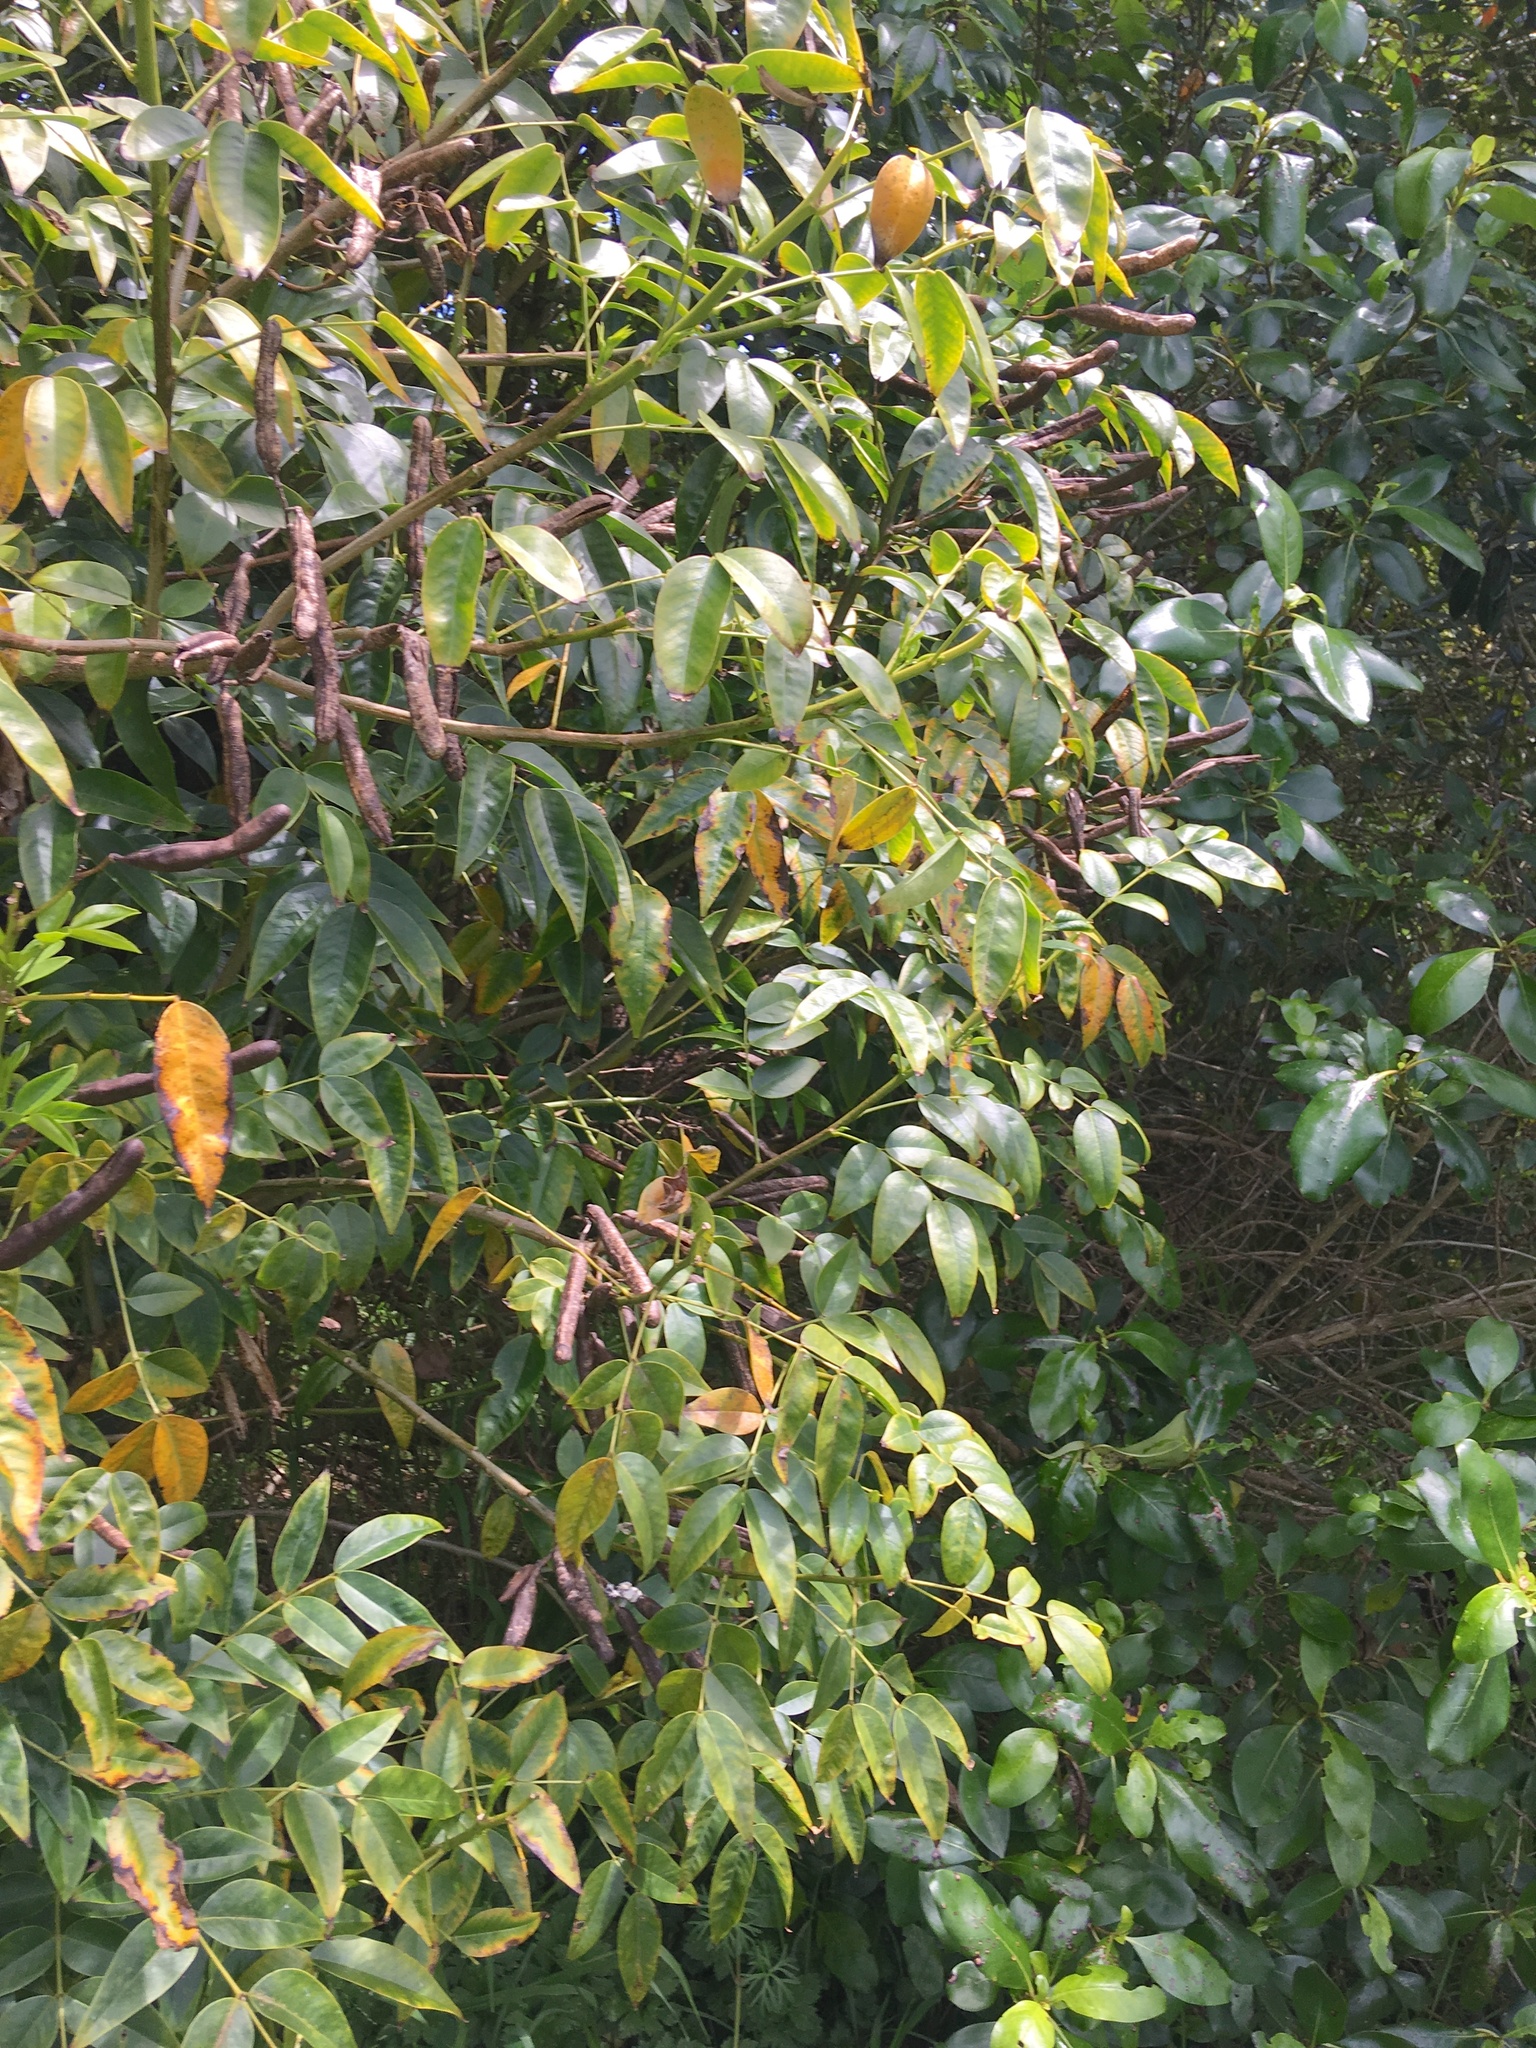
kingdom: Plantae
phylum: Tracheophyta
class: Magnoliopsida
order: Fabales
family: Fabaceae
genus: Senna
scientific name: Senna septemtrionalis
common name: Arsenic bush
